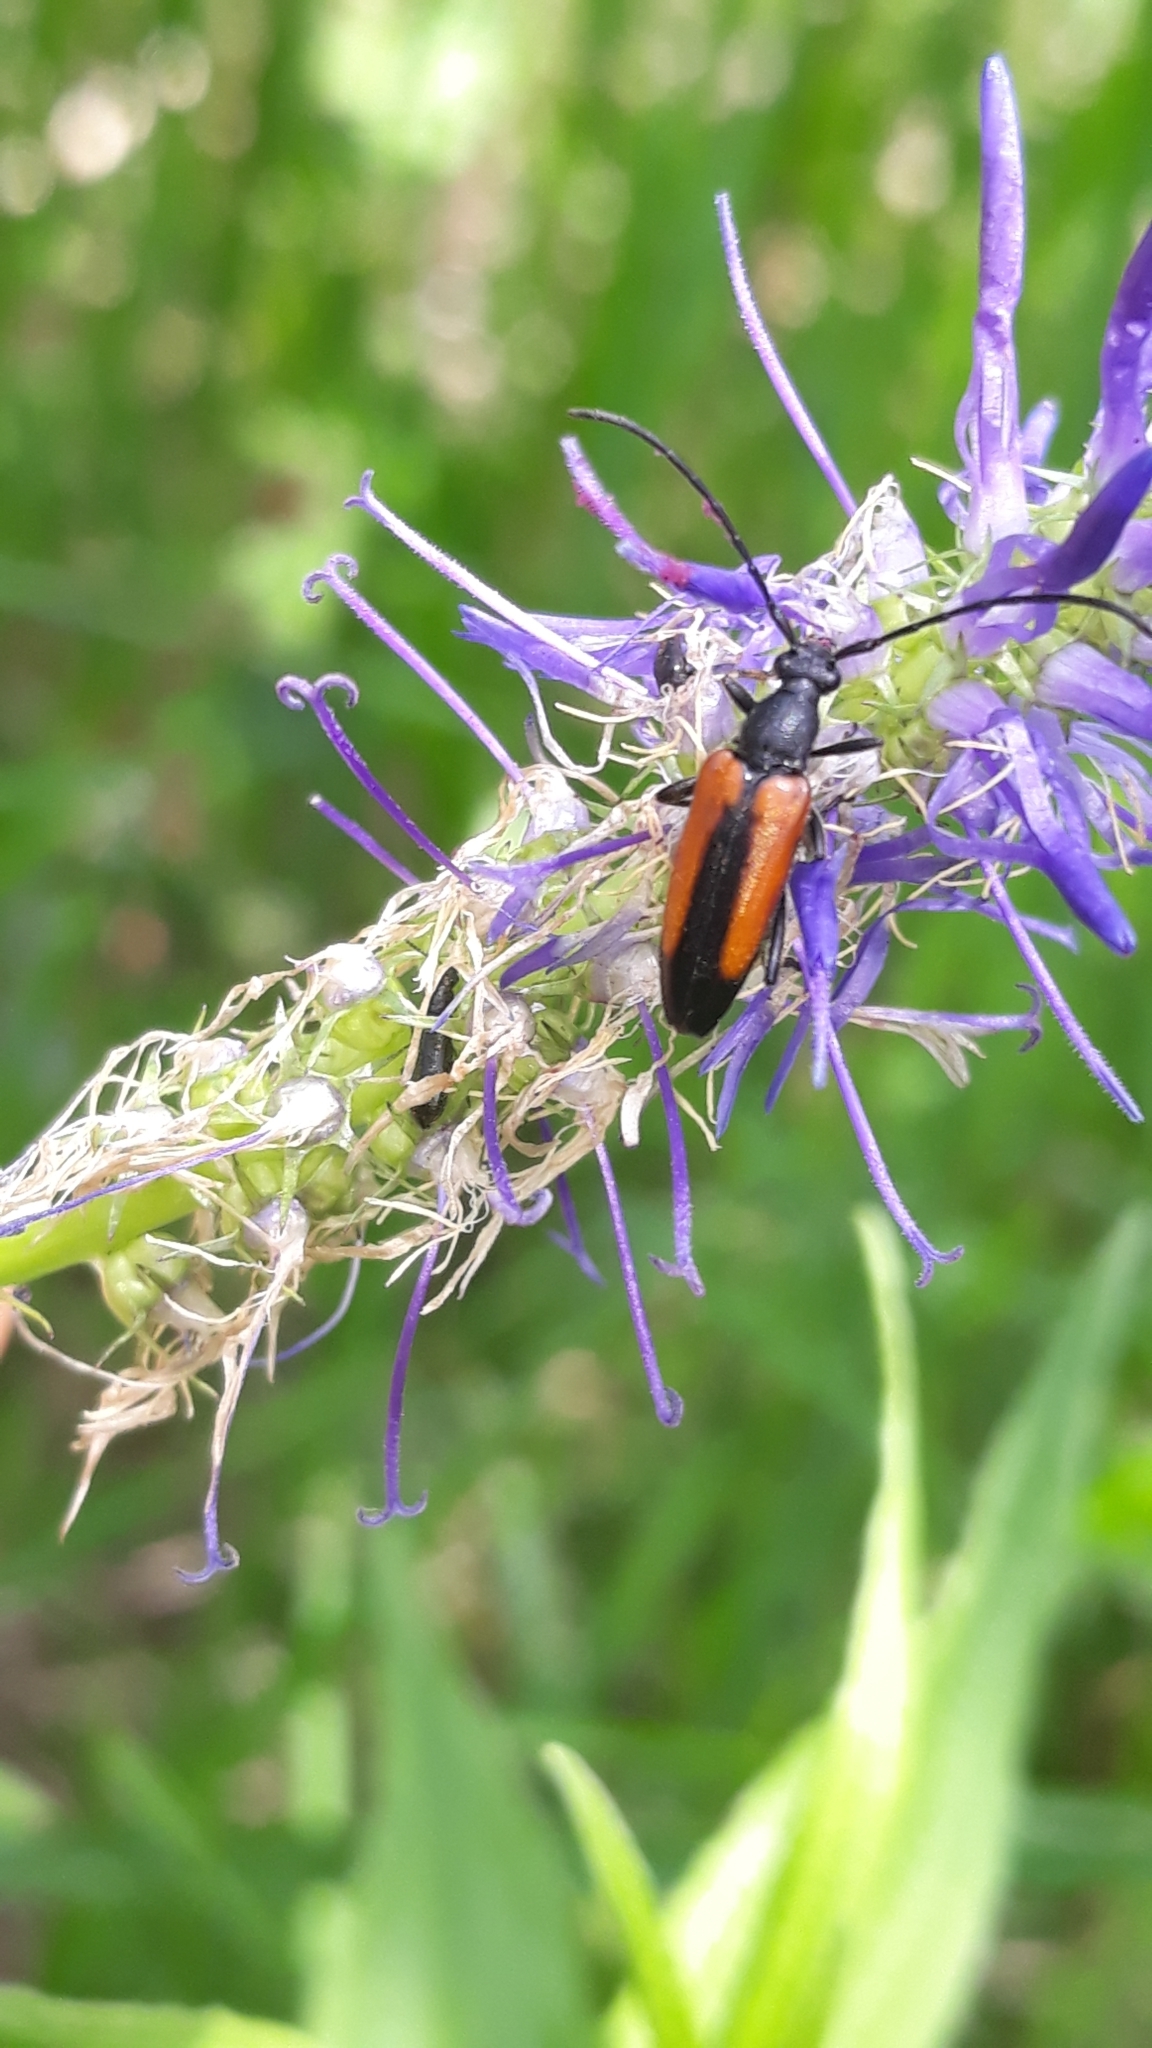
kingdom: Animalia
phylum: Arthropoda
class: Insecta
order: Coleoptera
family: Cerambycidae
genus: Stenurella
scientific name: Stenurella melanura
